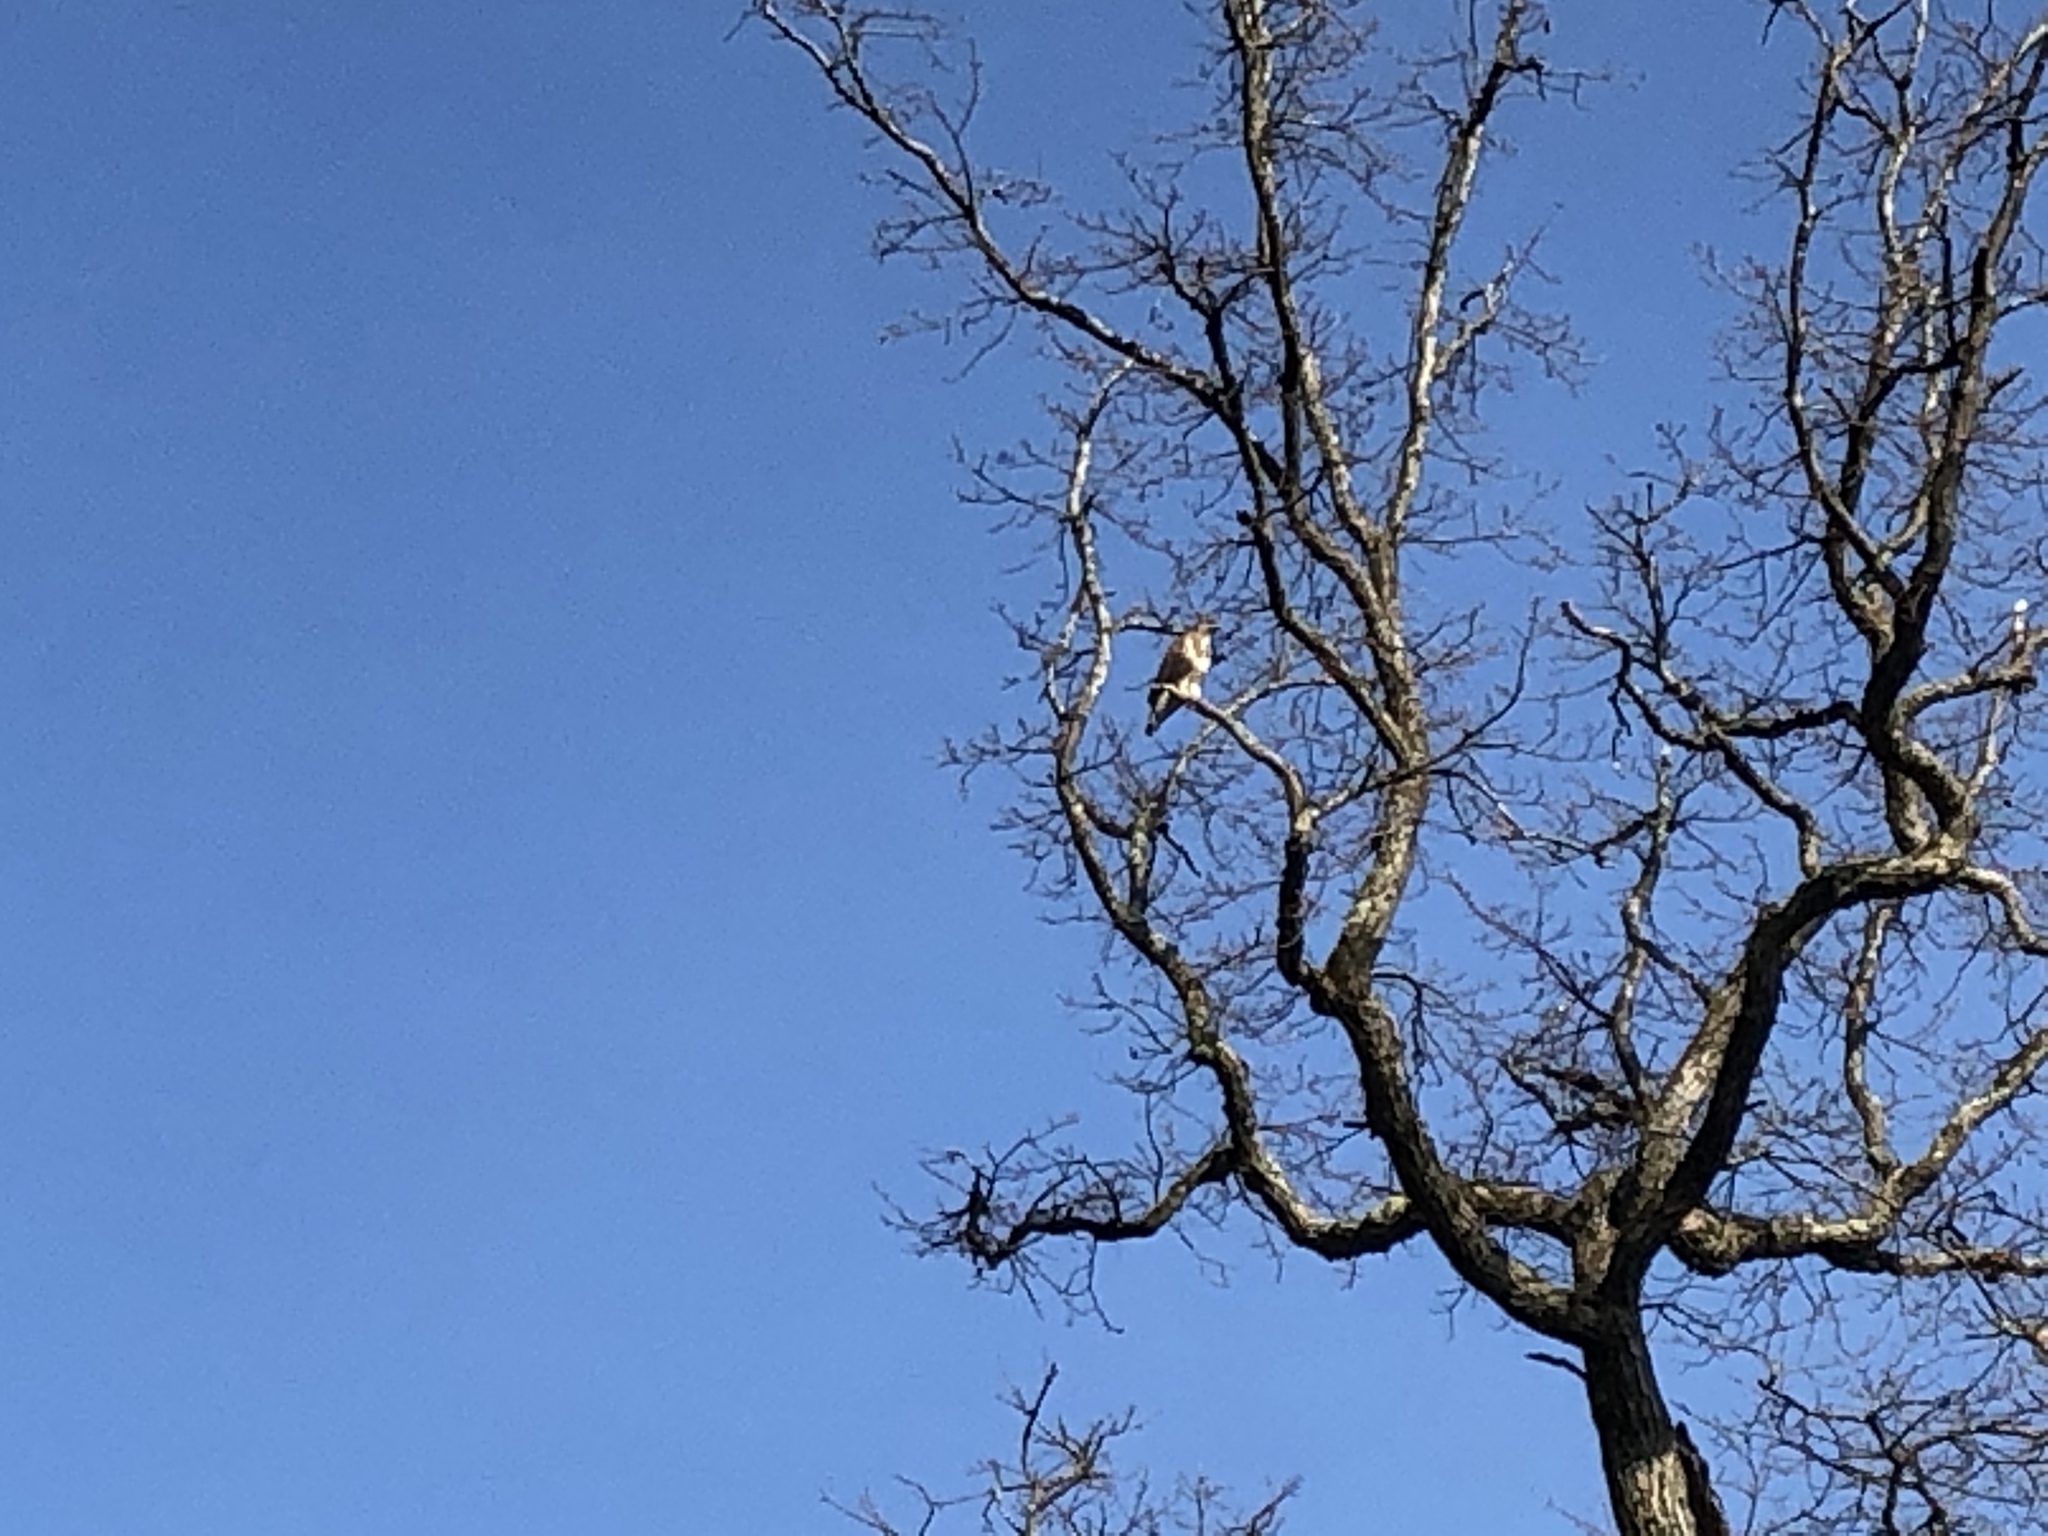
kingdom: Animalia
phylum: Chordata
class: Aves
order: Accipitriformes
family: Accipitridae
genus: Buteo
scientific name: Buteo buteo
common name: Common buzzard
